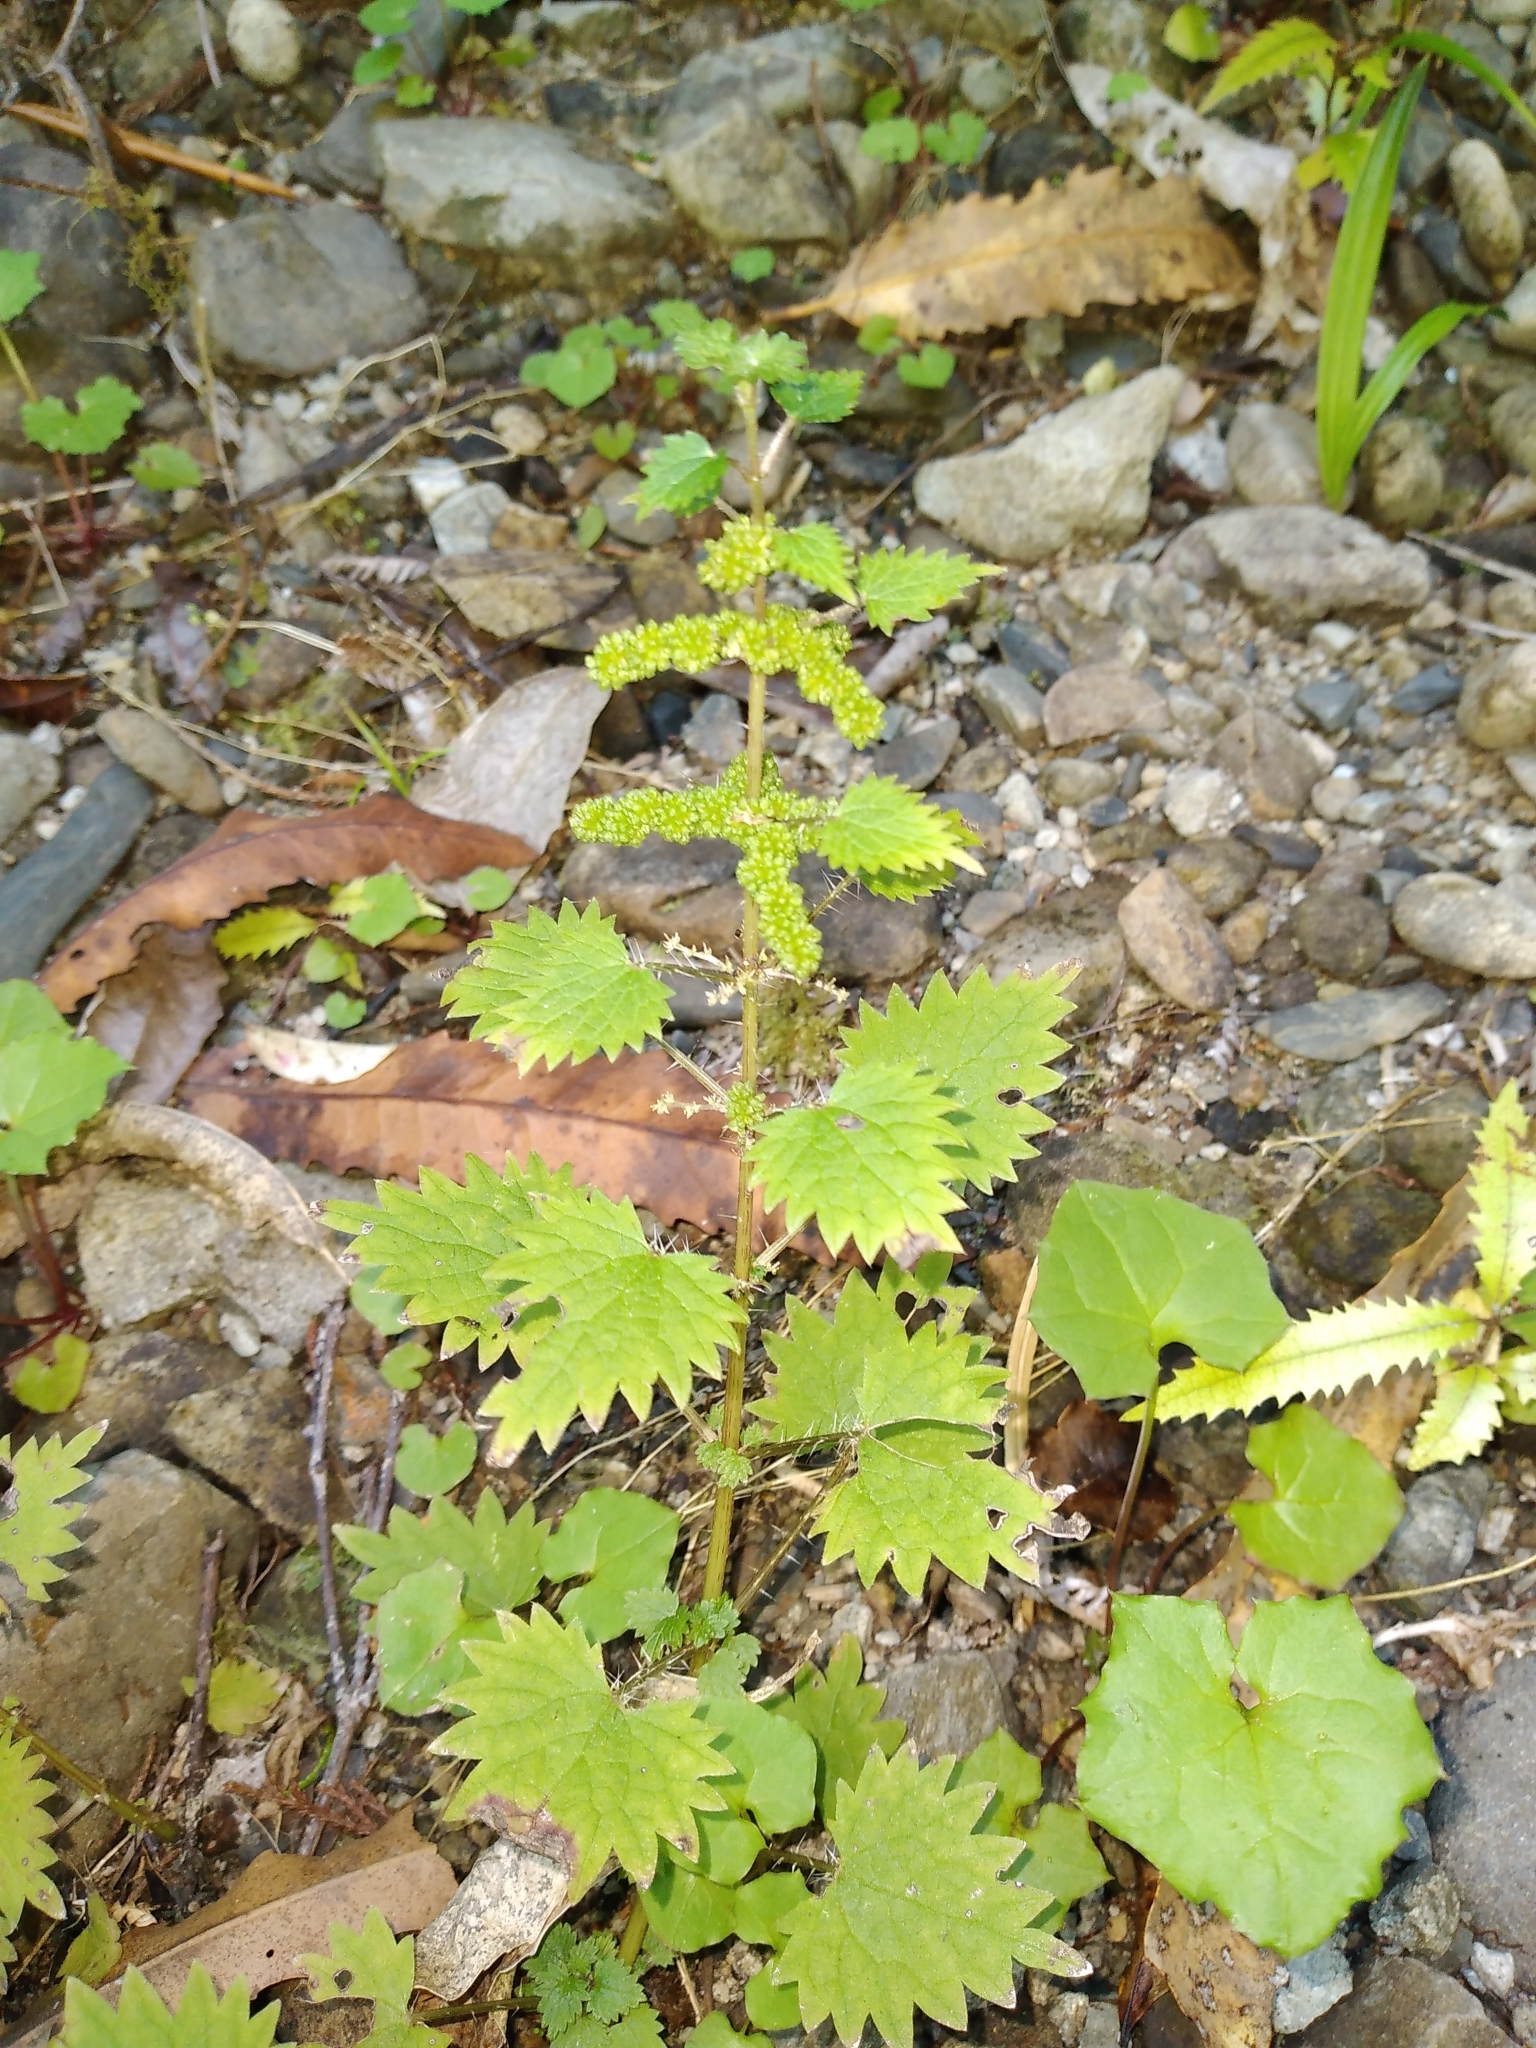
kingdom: Plantae
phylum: Tracheophyta
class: Magnoliopsida
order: Rosales
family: Urticaceae
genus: Urtica
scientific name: Urtica sykesii
